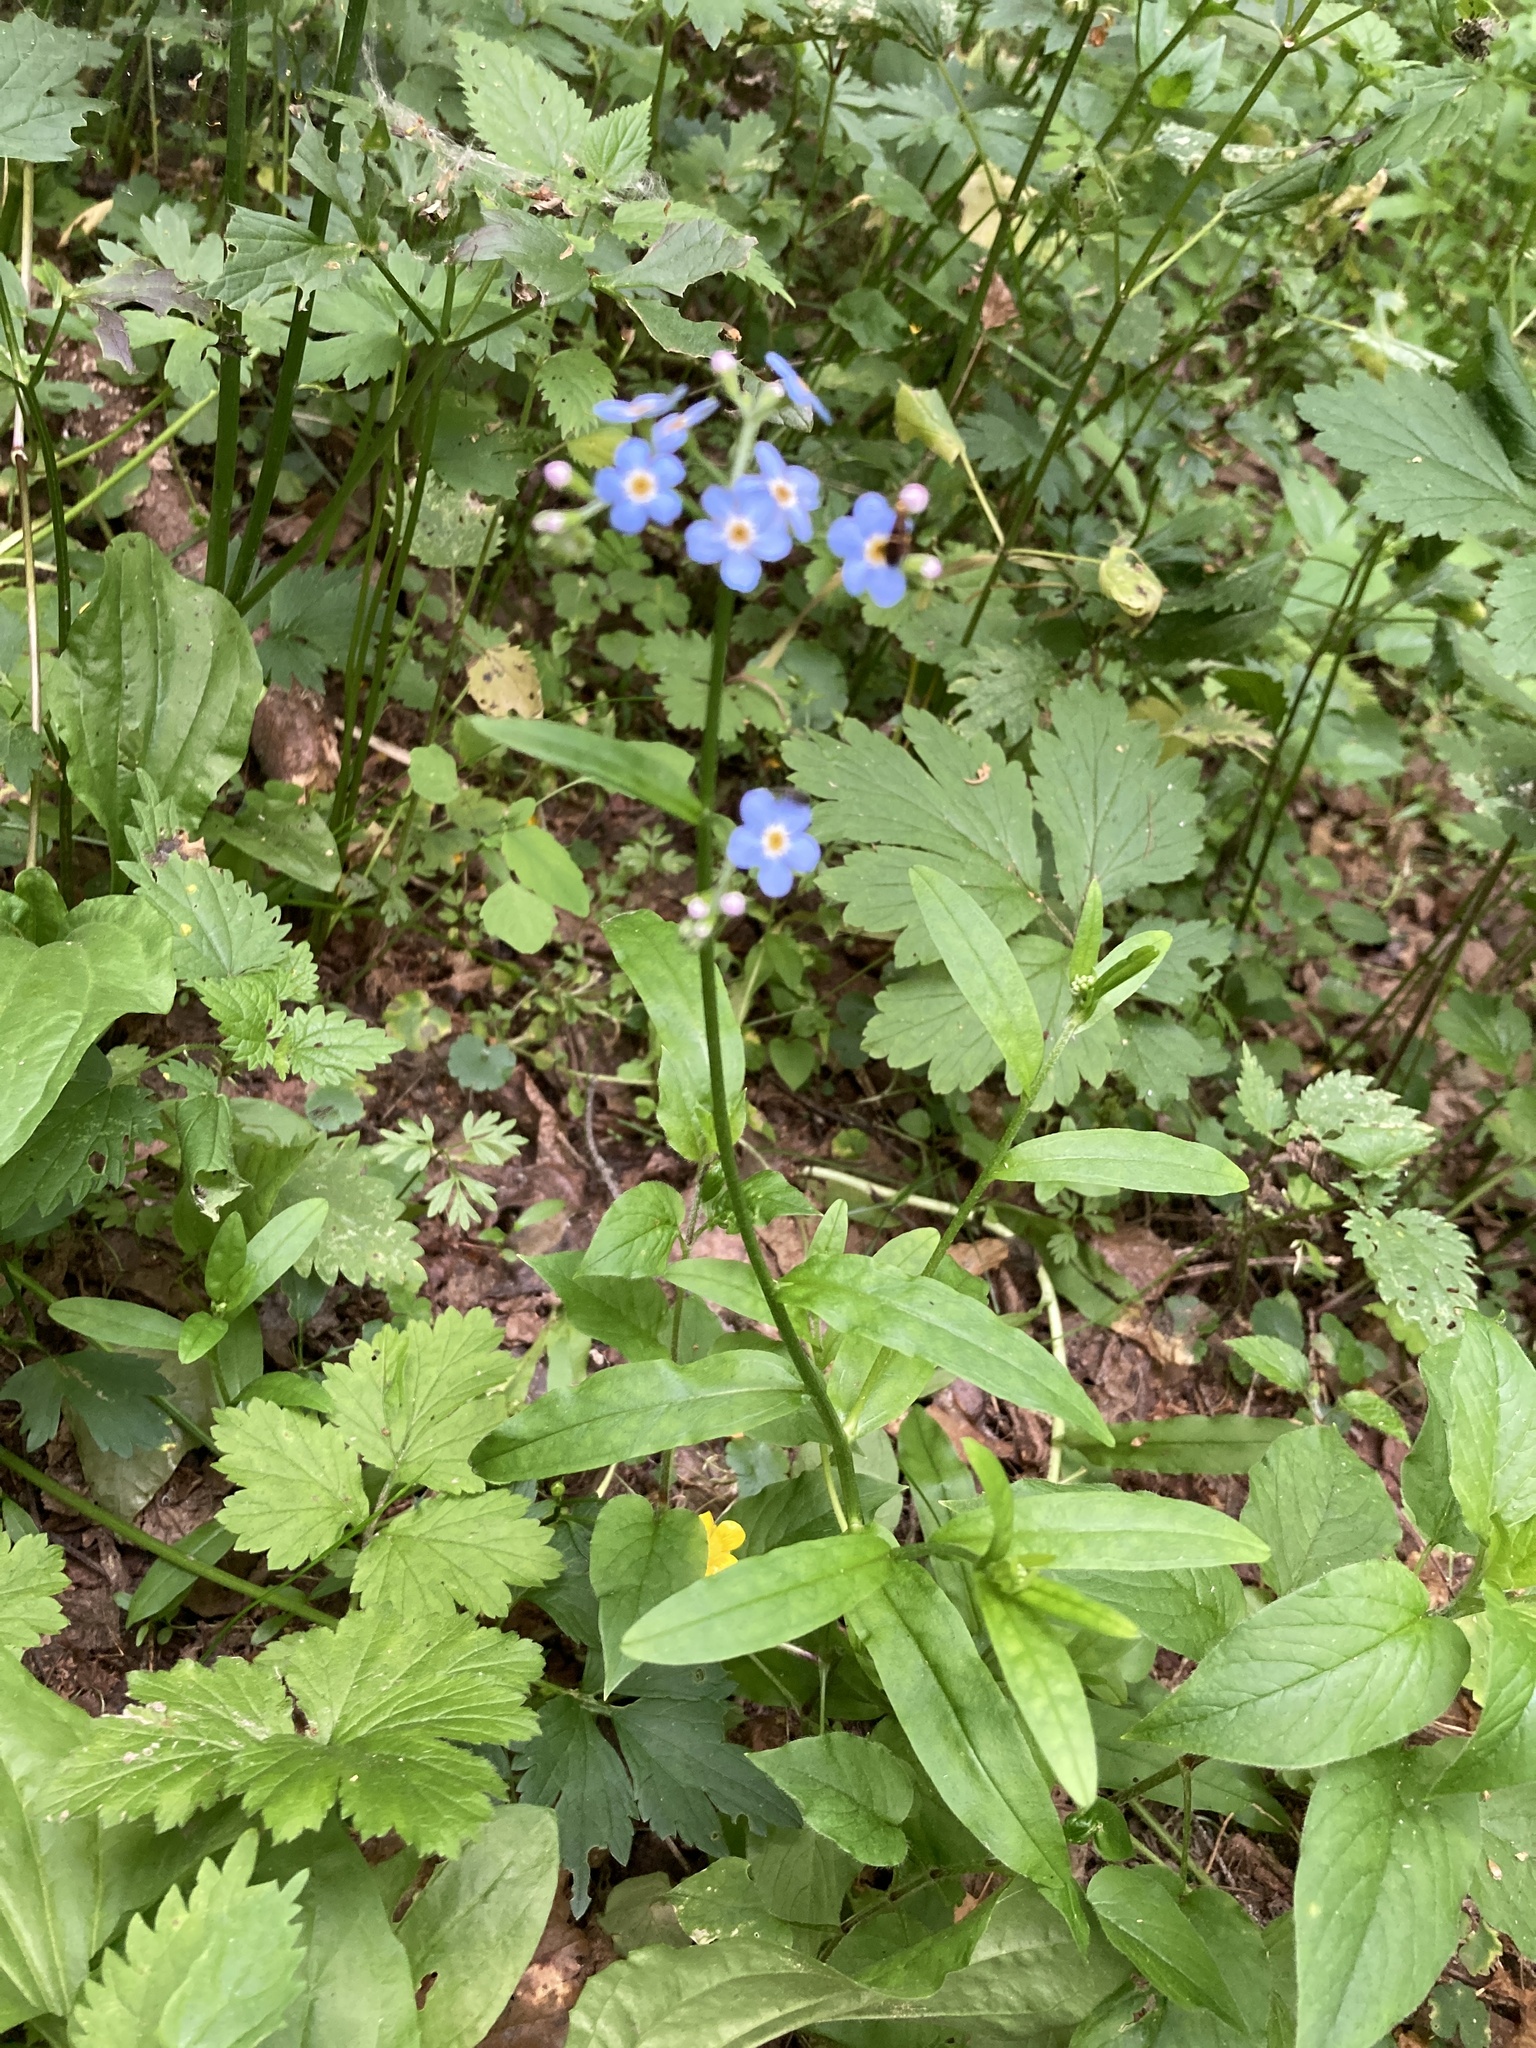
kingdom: Plantae
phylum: Tracheophyta
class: Magnoliopsida
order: Boraginales
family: Boraginaceae
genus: Myosotis
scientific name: Myosotis scorpioides
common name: Water forget-me-not
